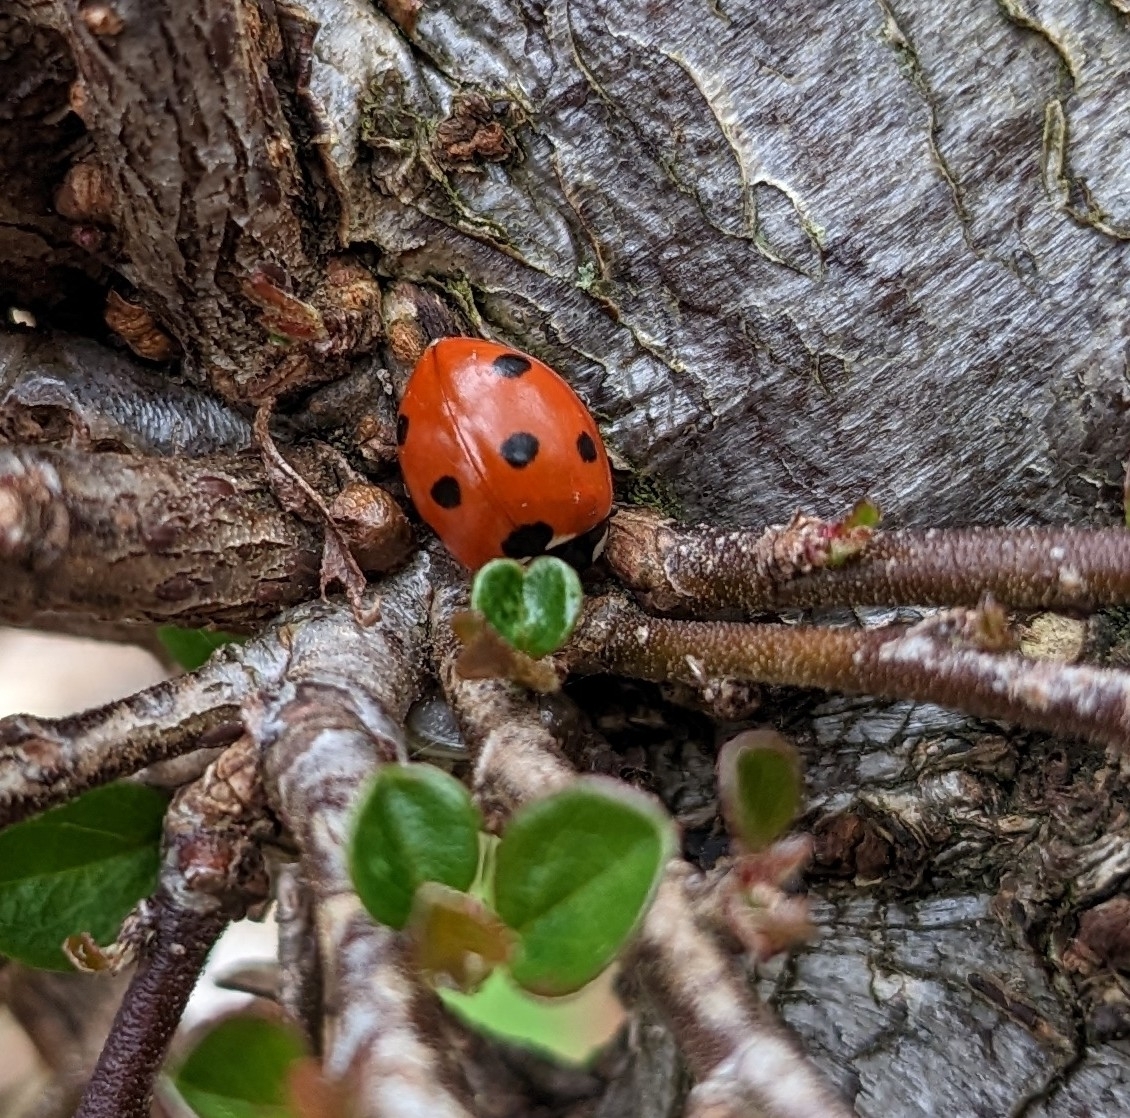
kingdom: Animalia
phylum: Arthropoda
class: Insecta
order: Coleoptera
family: Coccinellidae
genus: Coccinella
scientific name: Coccinella septempunctata
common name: Sevenspotted lady beetle
